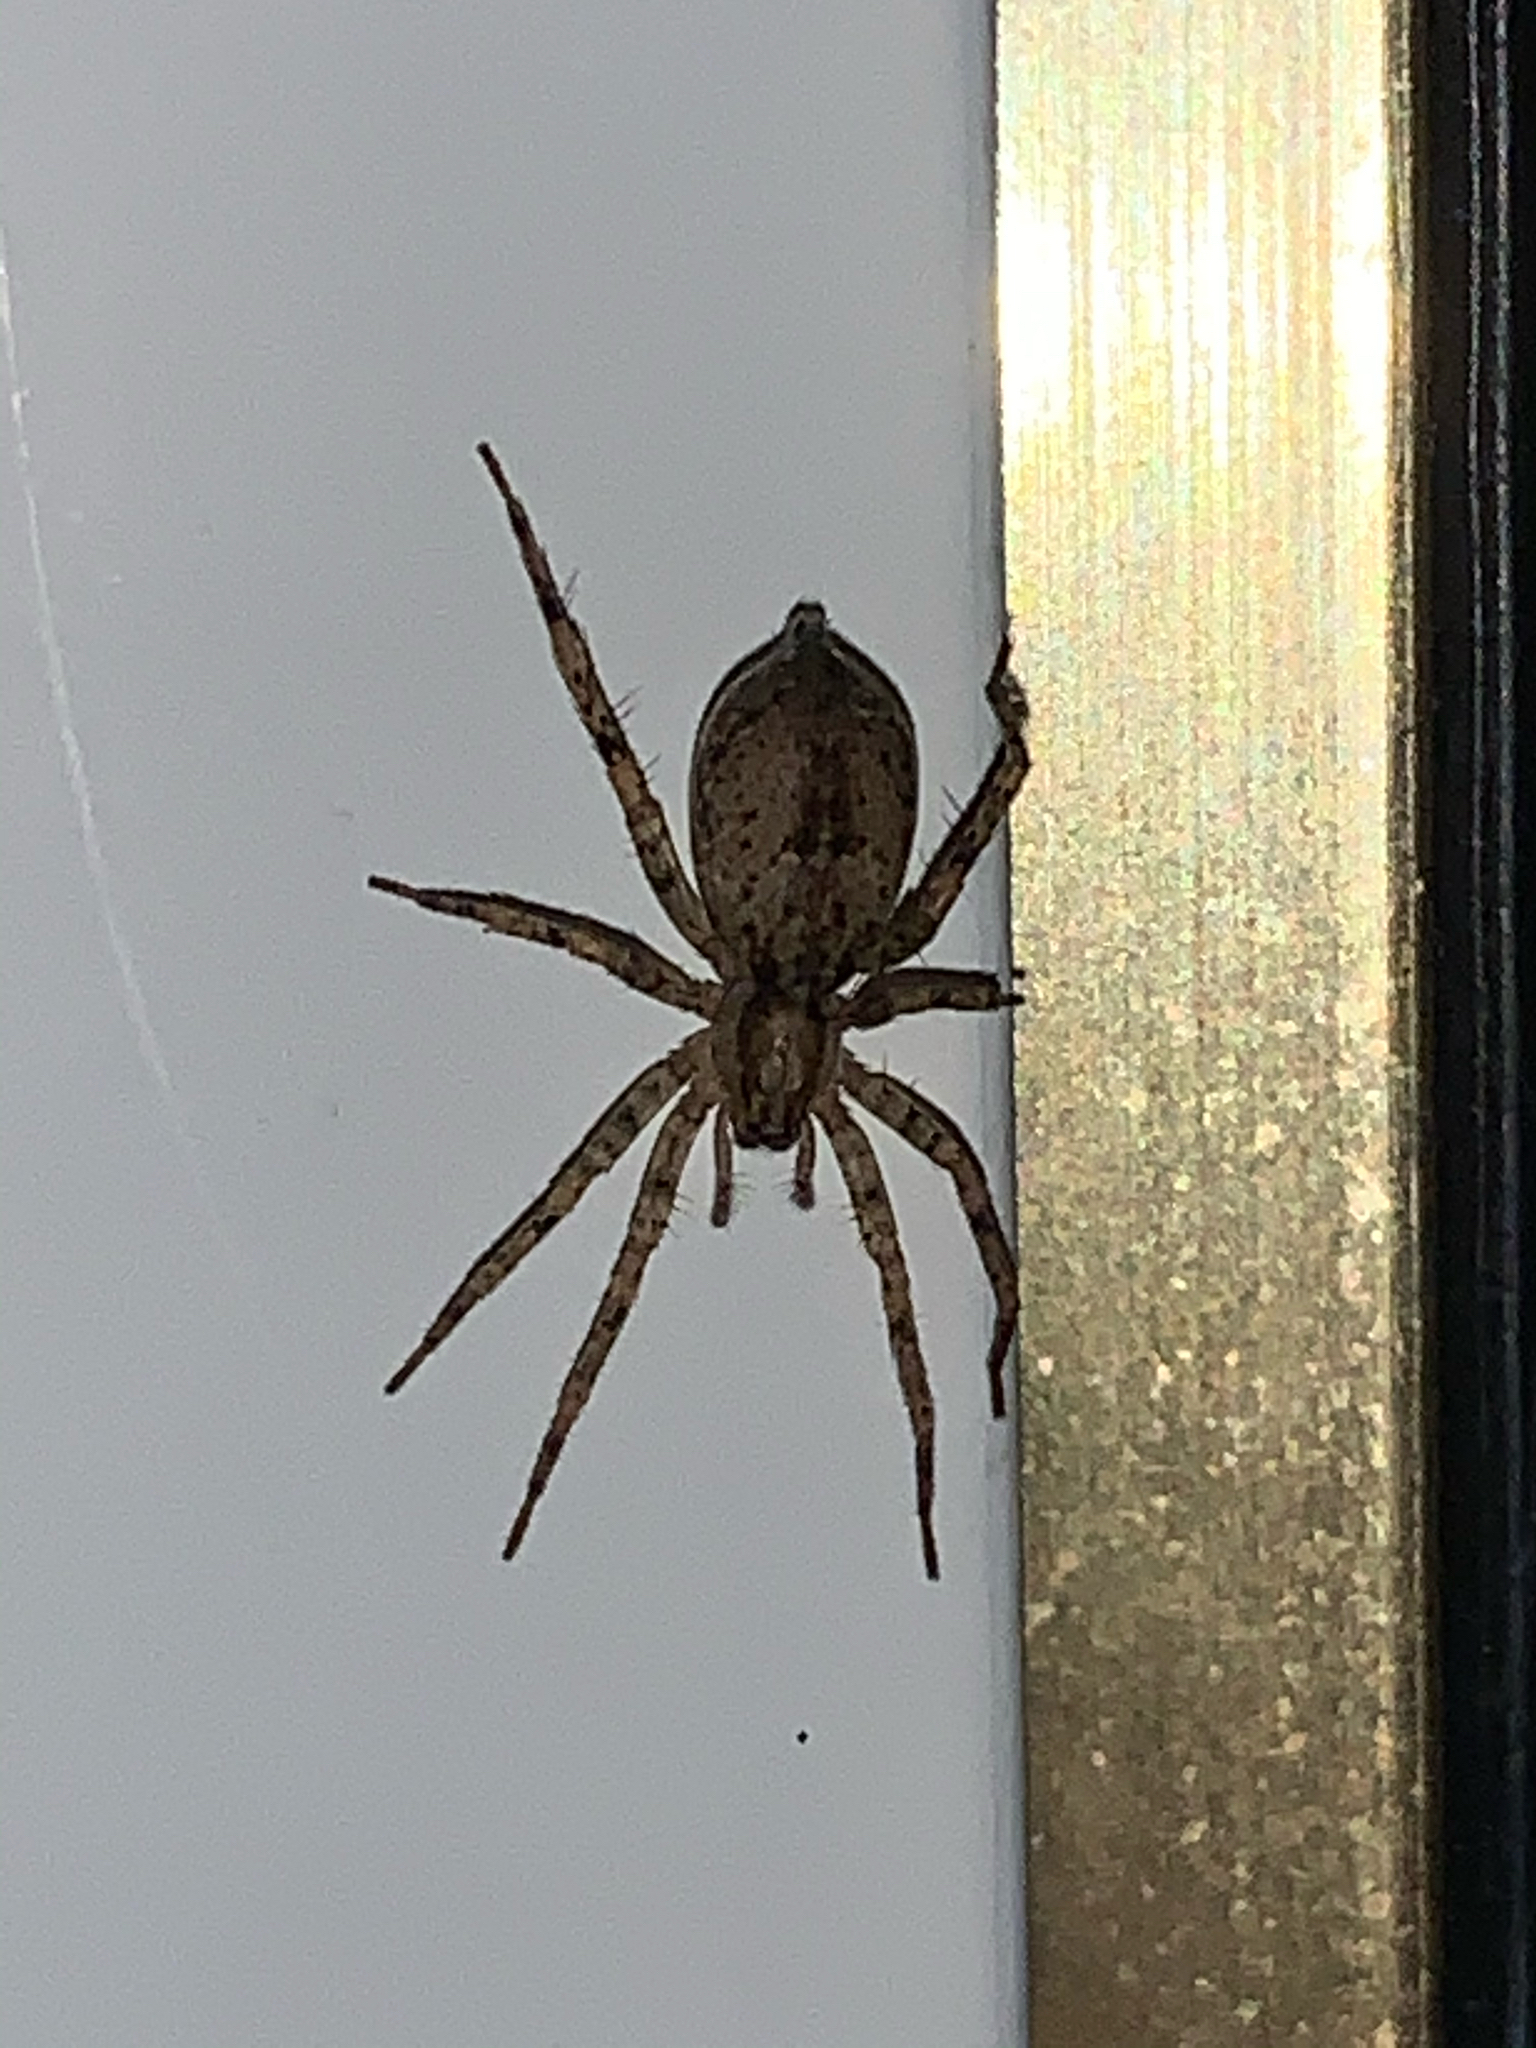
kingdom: Animalia
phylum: Arthropoda
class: Arachnida
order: Araneae
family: Anyphaenidae
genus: Anyphaena
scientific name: Anyphaena
